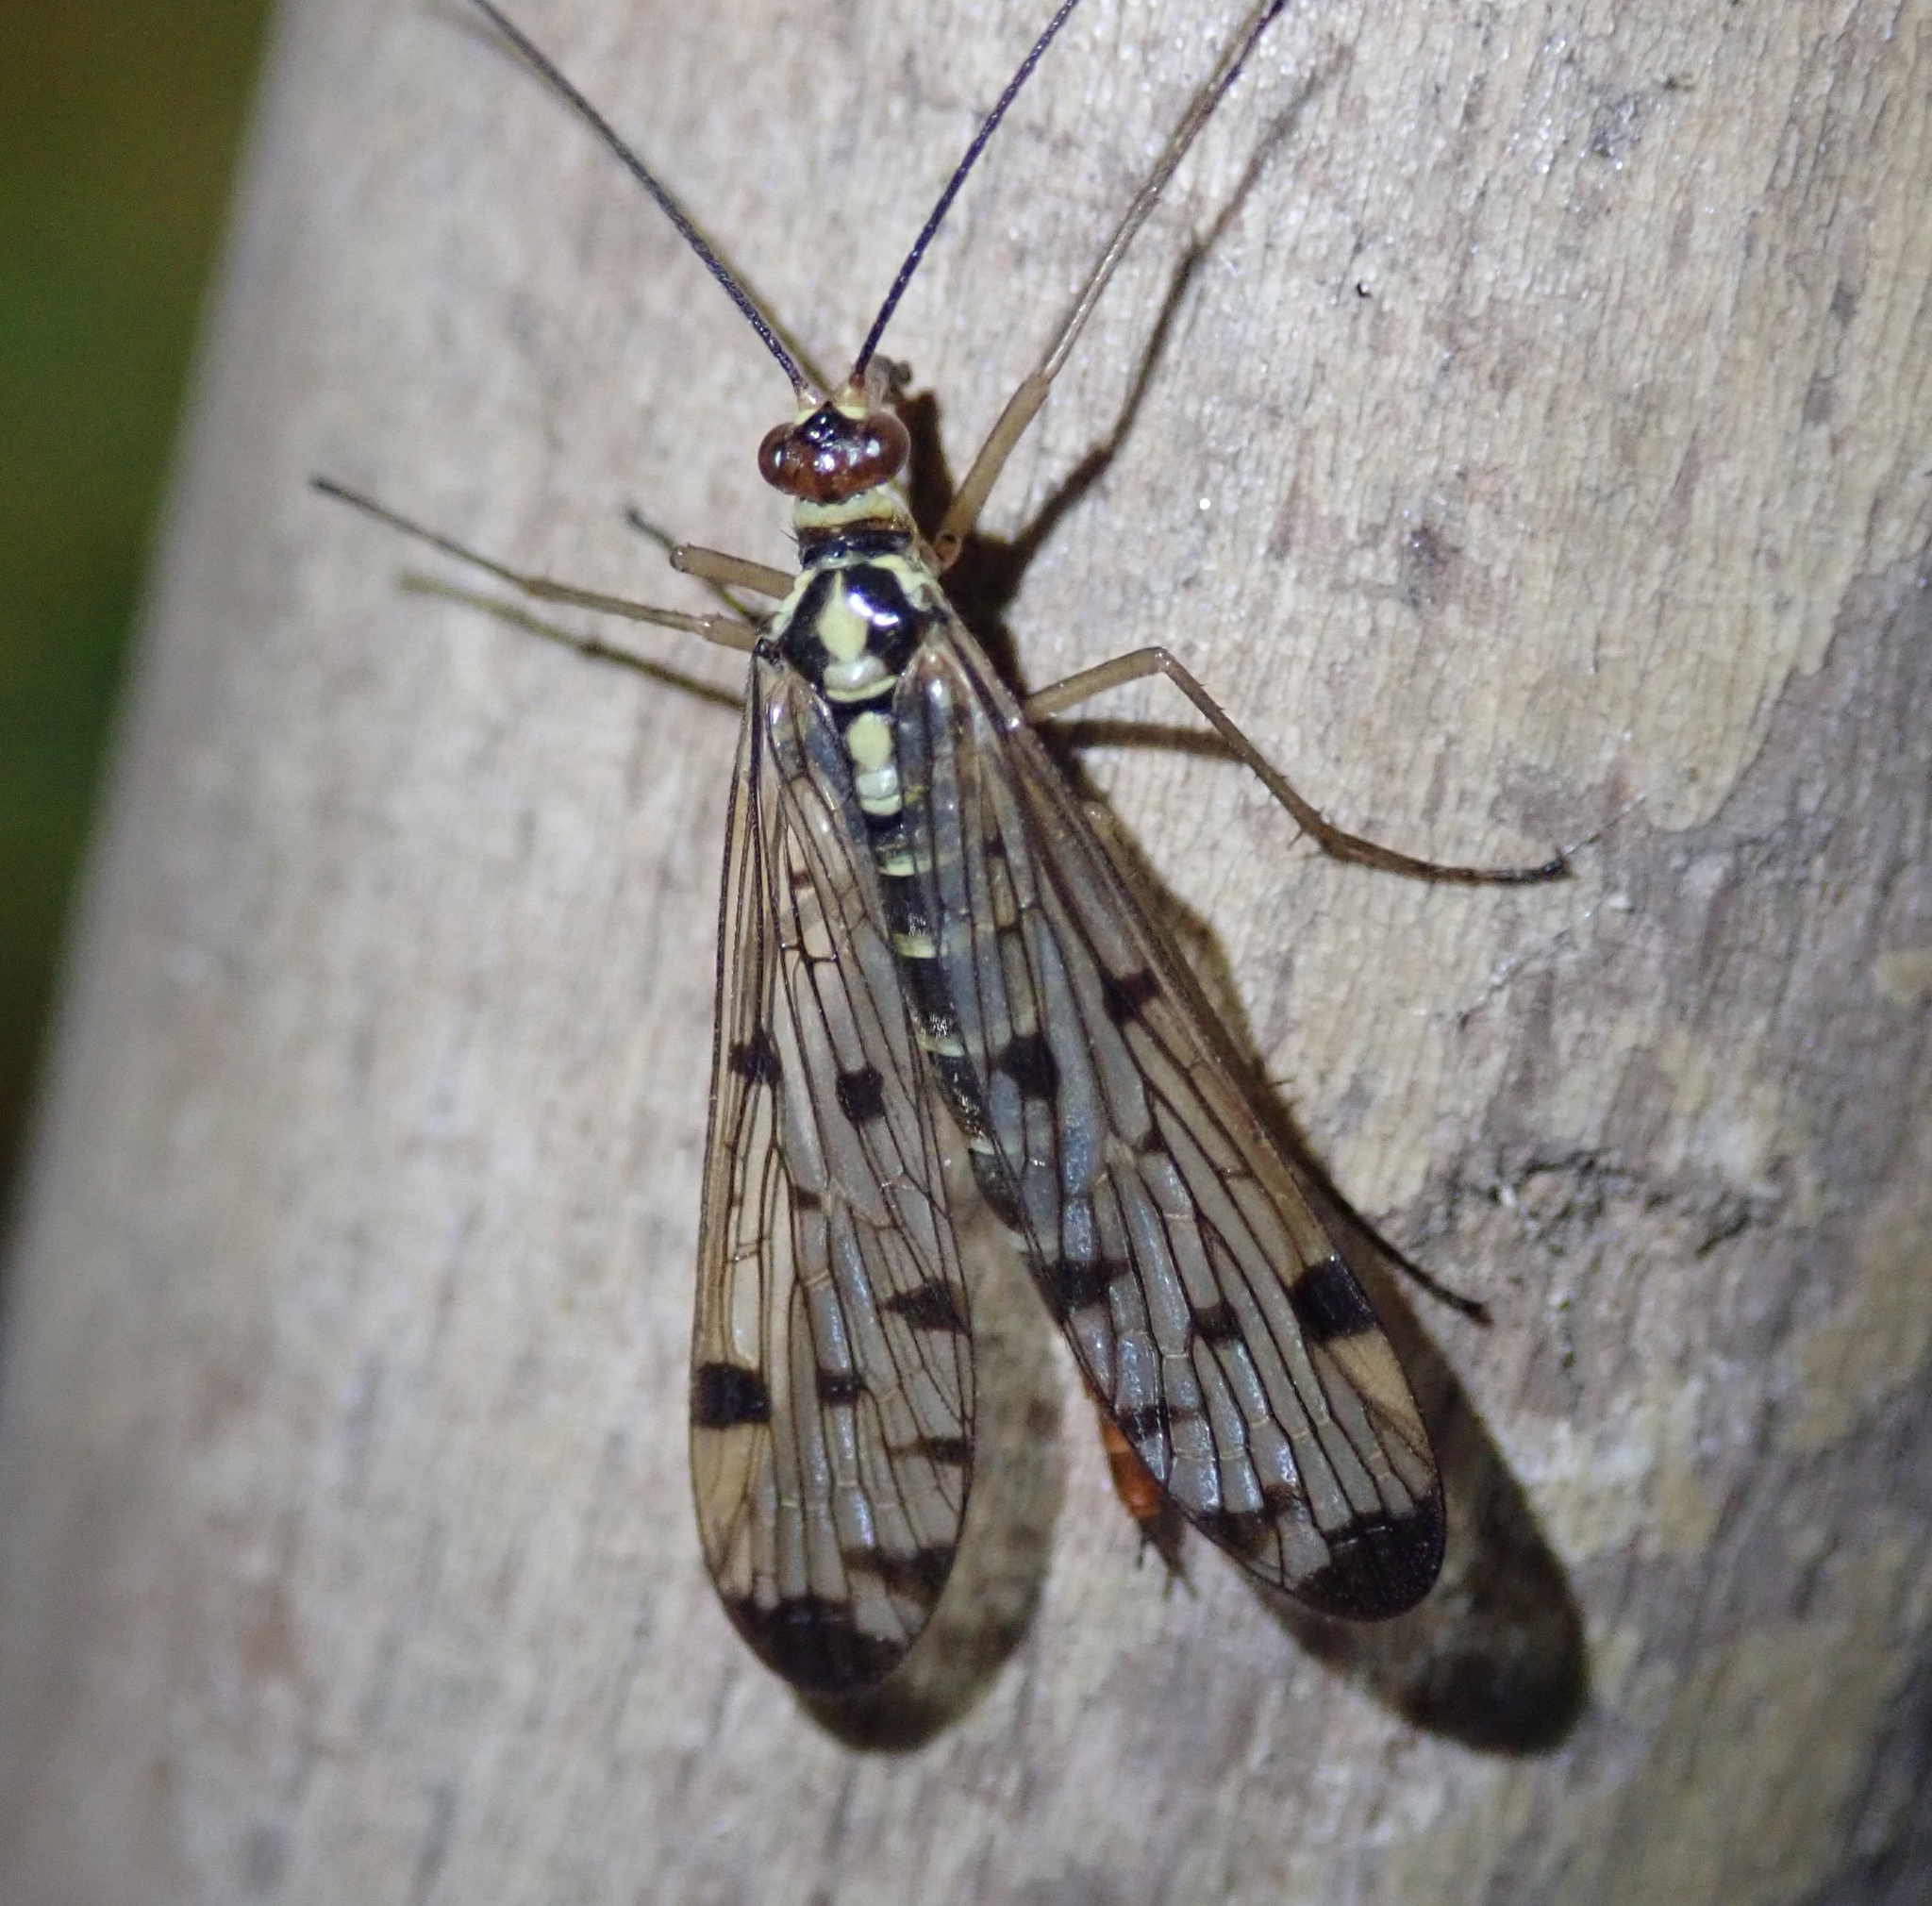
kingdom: Animalia
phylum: Arthropoda
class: Insecta
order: Mecoptera
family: Panorpidae
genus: Panorpa
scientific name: Panorpa germanica
